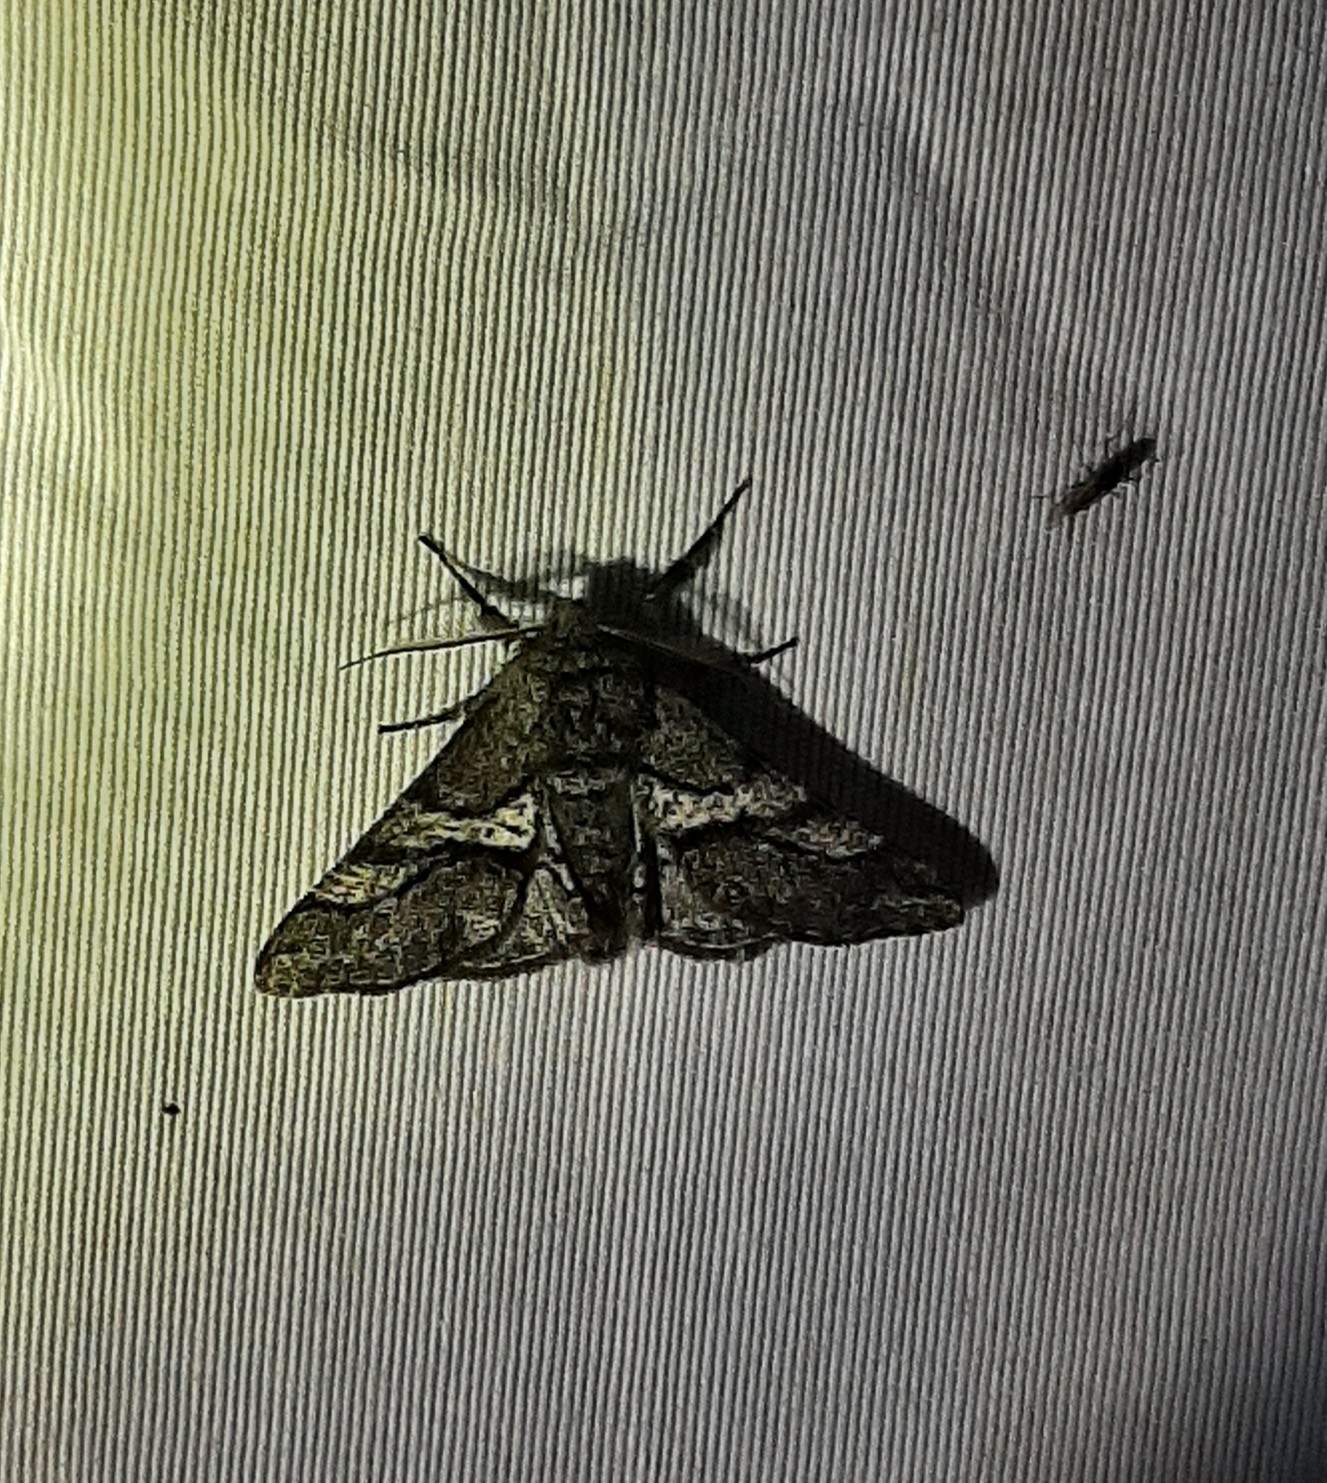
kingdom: Animalia
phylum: Arthropoda
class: Insecta
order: Lepidoptera
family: Geometridae
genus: Lycia
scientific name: Lycia ypsilon
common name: Wooly gray
